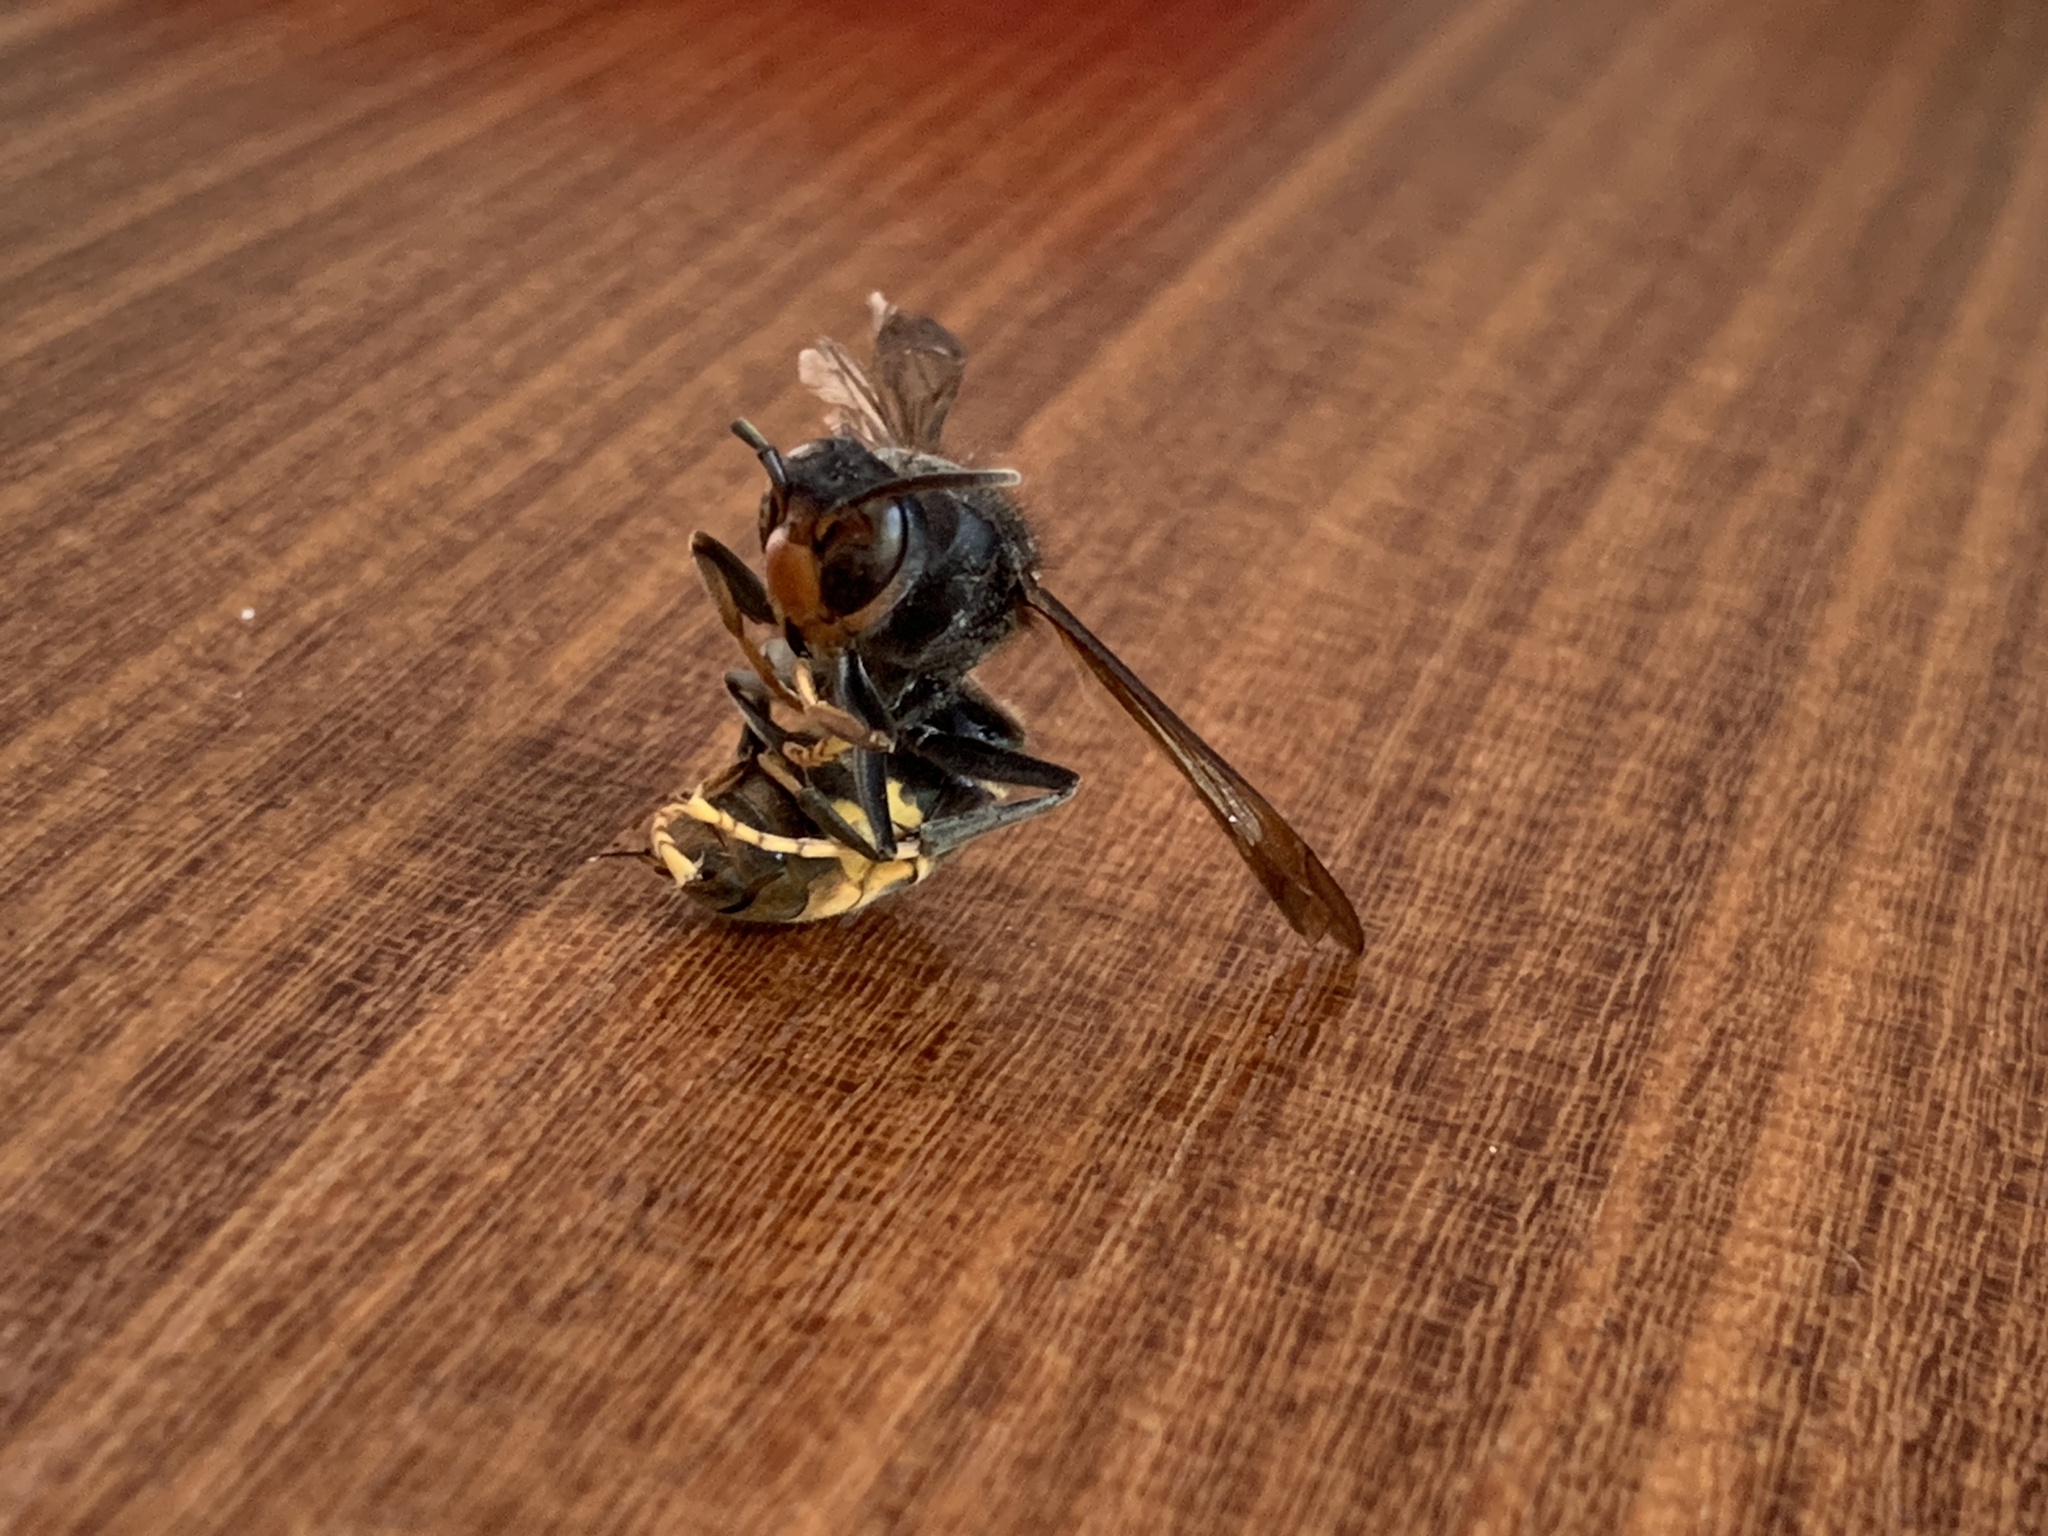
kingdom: Animalia
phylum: Arthropoda
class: Insecta
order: Hymenoptera
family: Vespidae
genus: Vespa
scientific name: Vespa velutina
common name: Asian hornet
